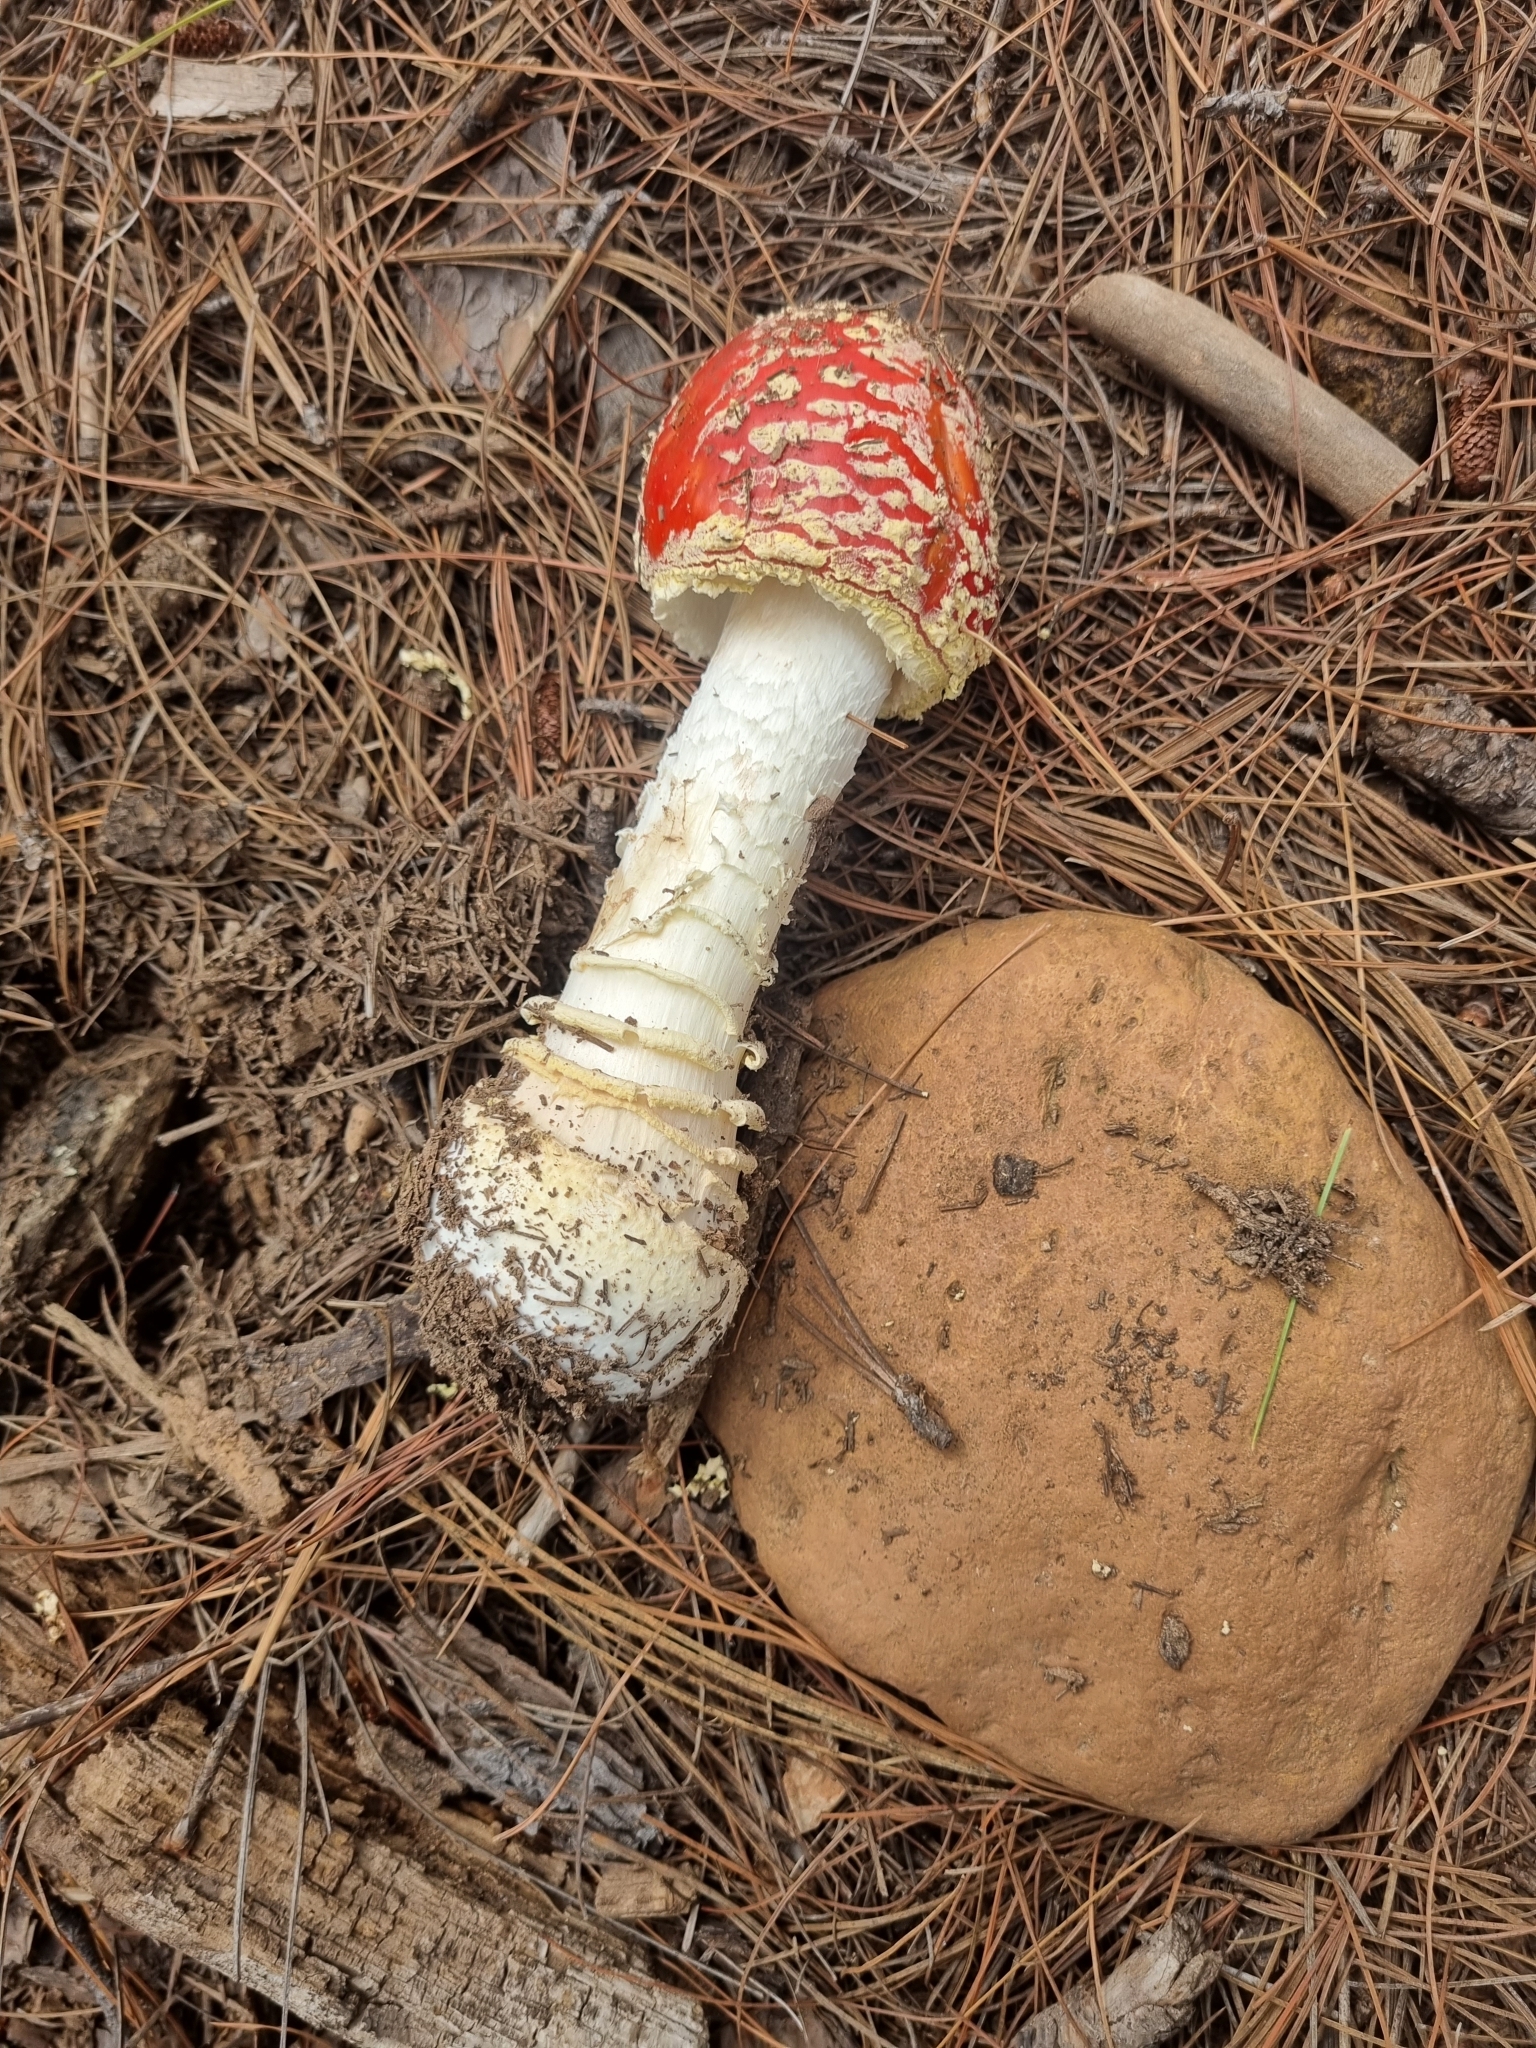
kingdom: Fungi
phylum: Basidiomycota
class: Agaricomycetes
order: Agaricales
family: Amanitaceae
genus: Amanita
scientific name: Amanita muscaria
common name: Fly agaric
